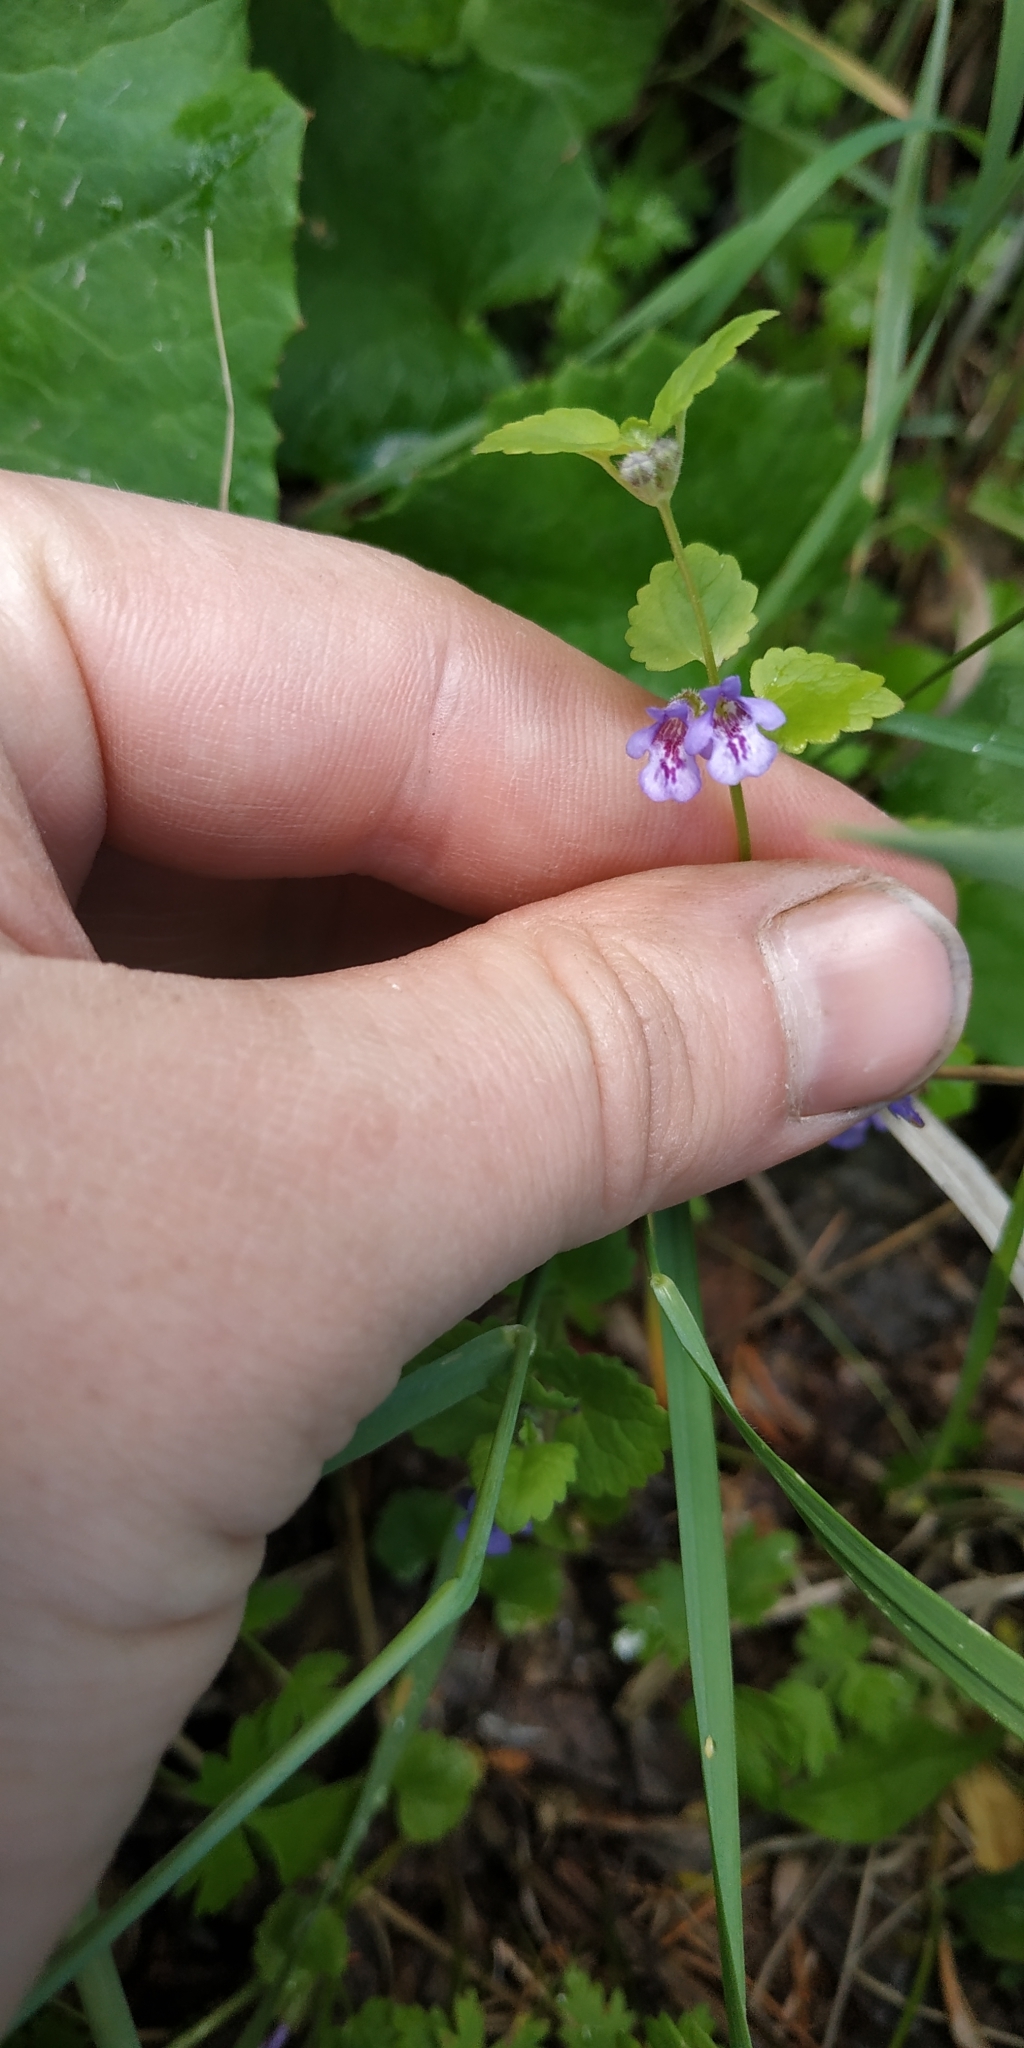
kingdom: Plantae
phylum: Tracheophyta
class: Magnoliopsida
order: Lamiales
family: Lamiaceae
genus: Glechoma
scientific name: Glechoma hederacea
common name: Ground ivy
